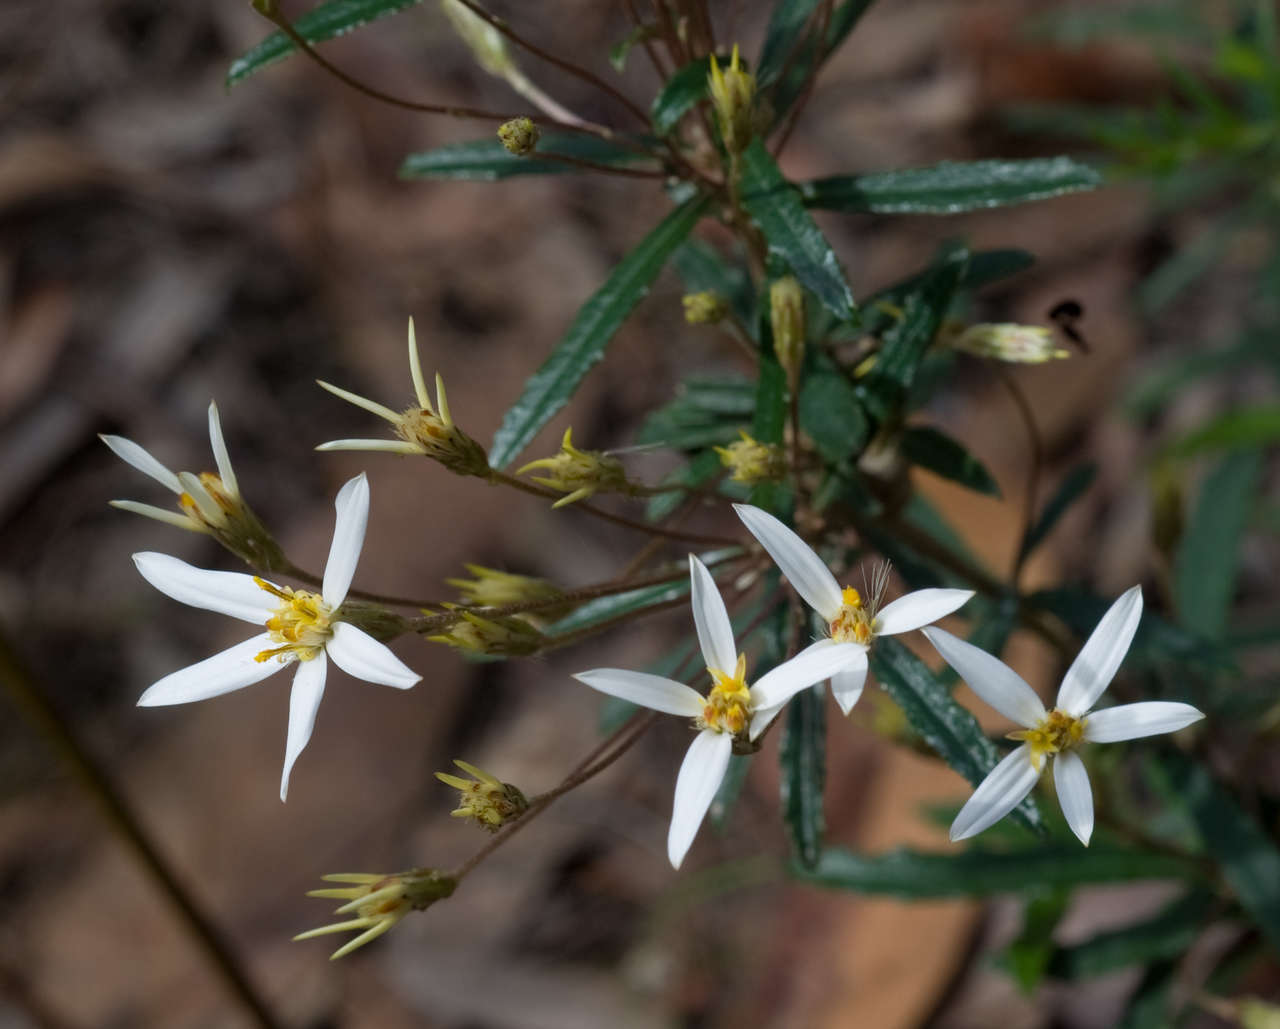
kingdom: Plantae
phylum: Tracheophyta
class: Magnoliopsida
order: Asterales
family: Asteraceae
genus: Olearia
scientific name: Olearia erubescens
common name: Moth daisybush
